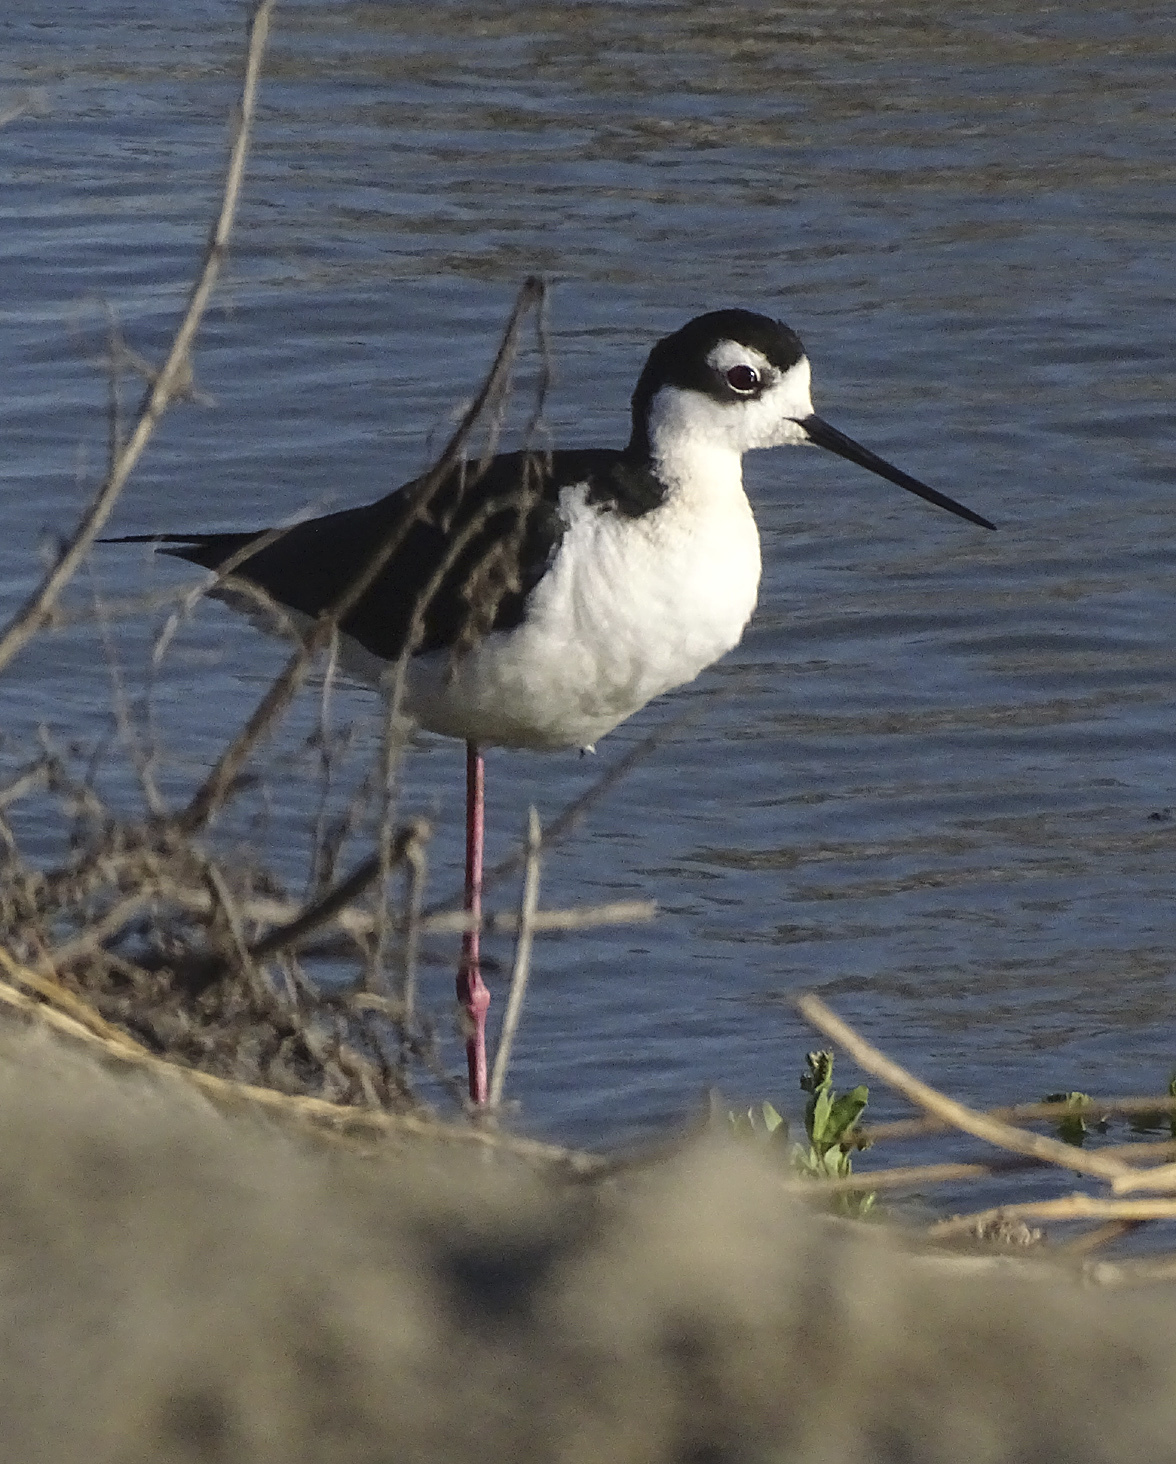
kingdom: Animalia
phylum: Chordata
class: Aves
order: Charadriiformes
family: Recurvirostridae
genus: Himantopus
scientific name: Himantopus mexicanus
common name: Black-necked stilt
